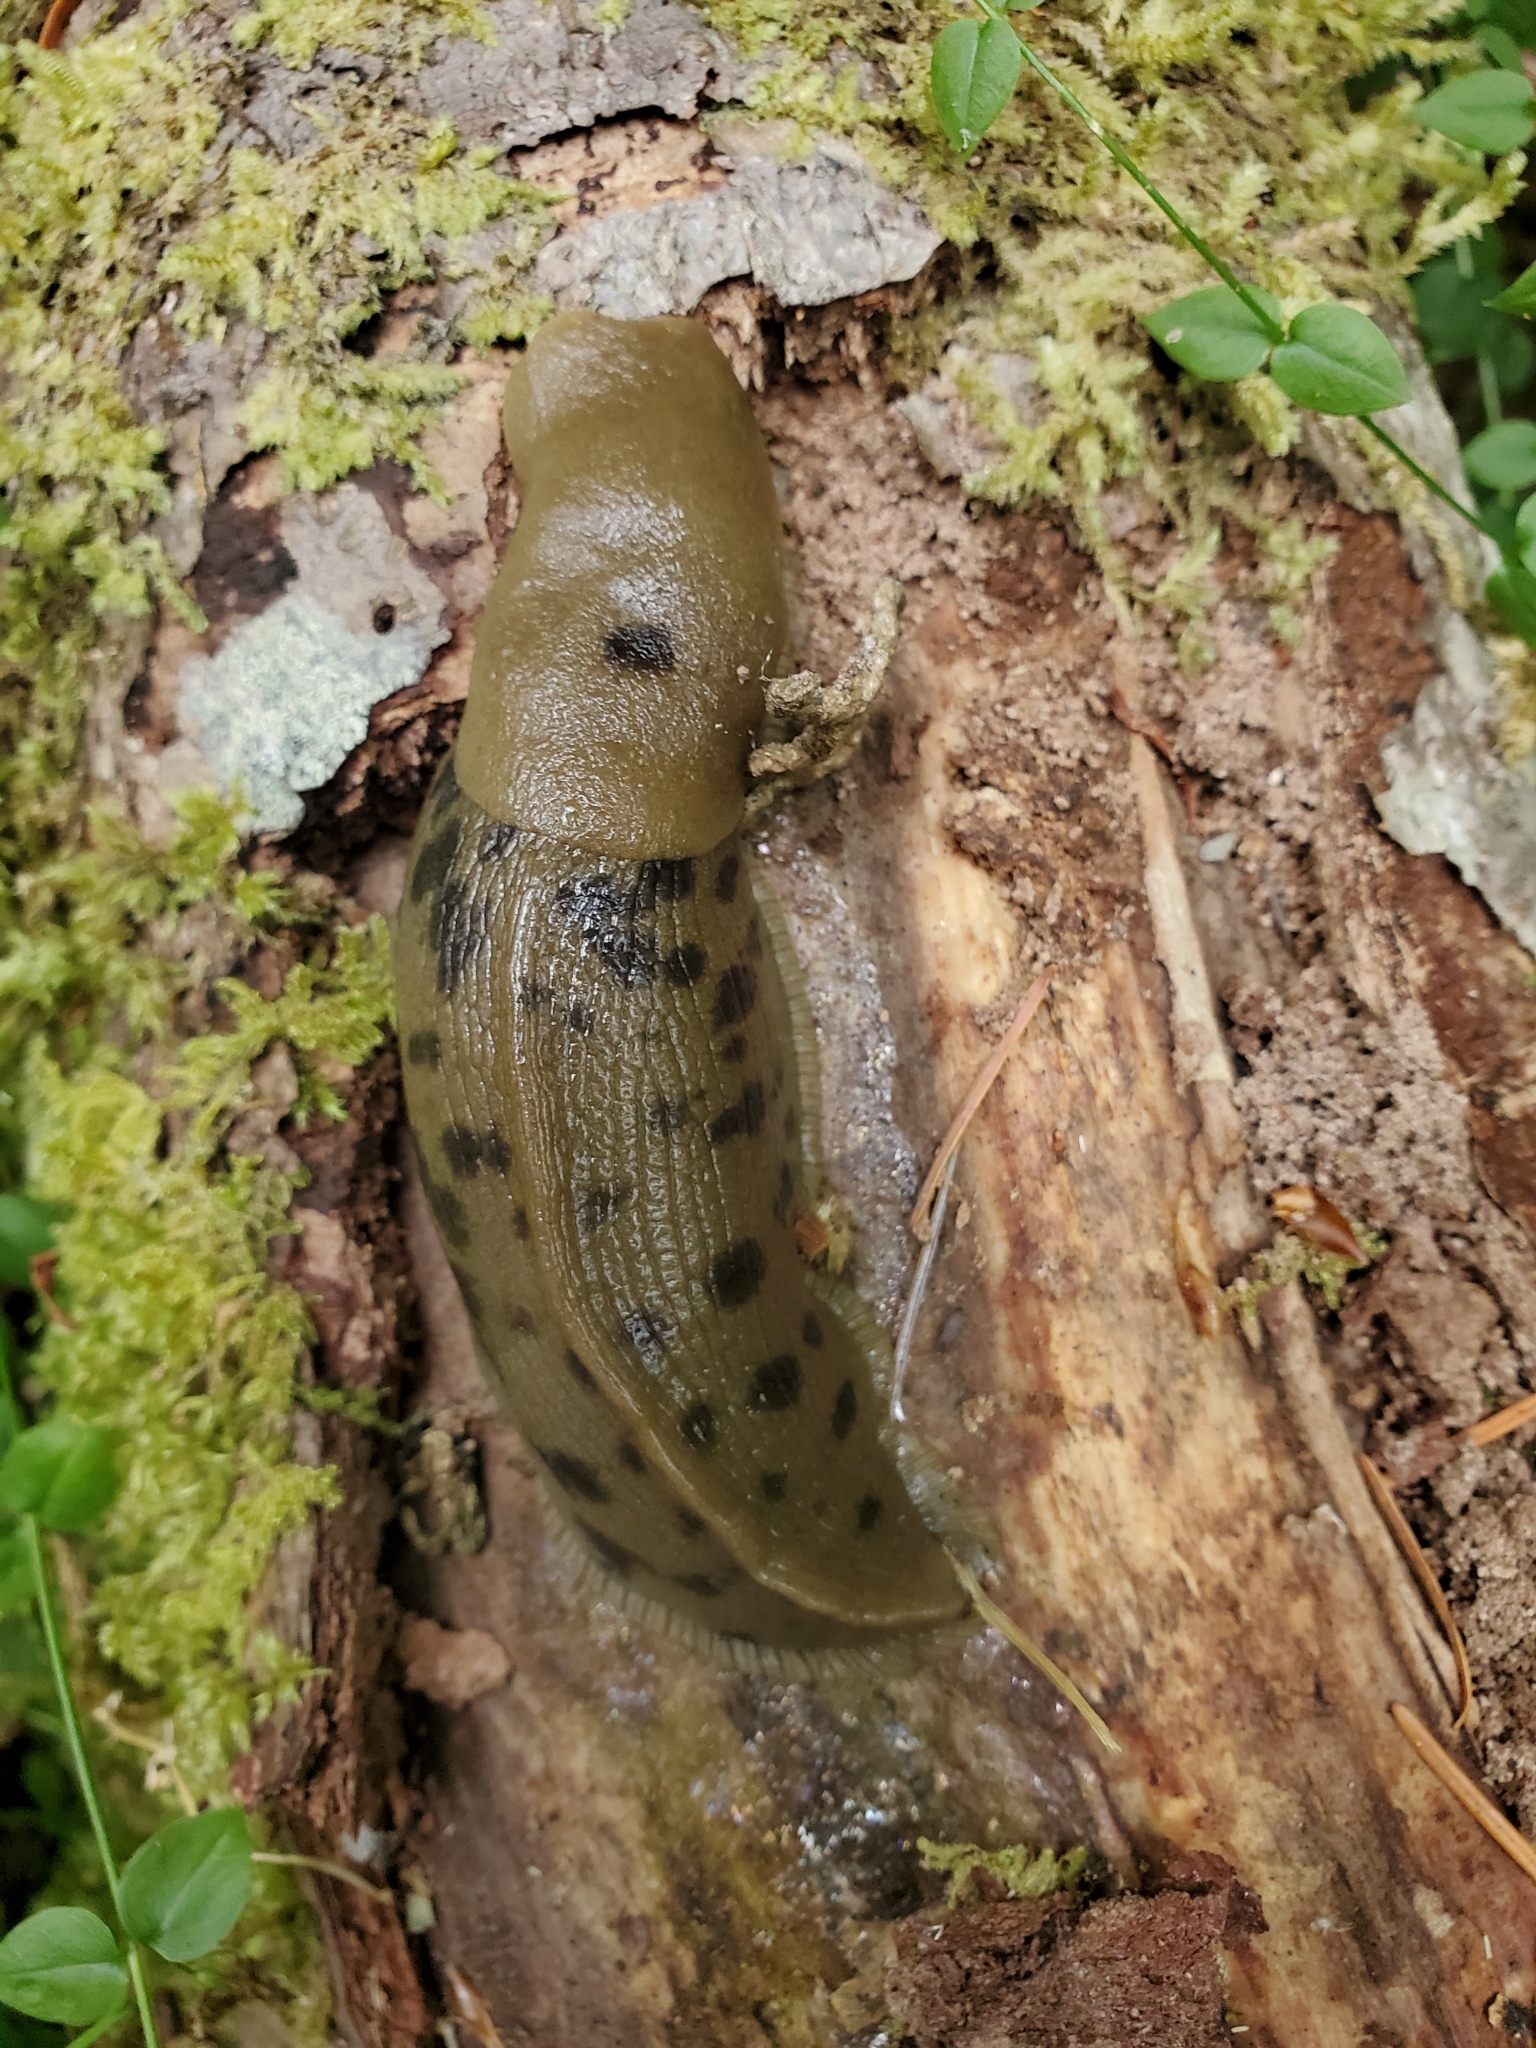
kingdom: Animalia
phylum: Mollusca
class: Gastropoda
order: Stylommatophora
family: Ariolimacidae
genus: Ariolimax
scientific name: Ariolimax columbianus
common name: Pacific banana slug
